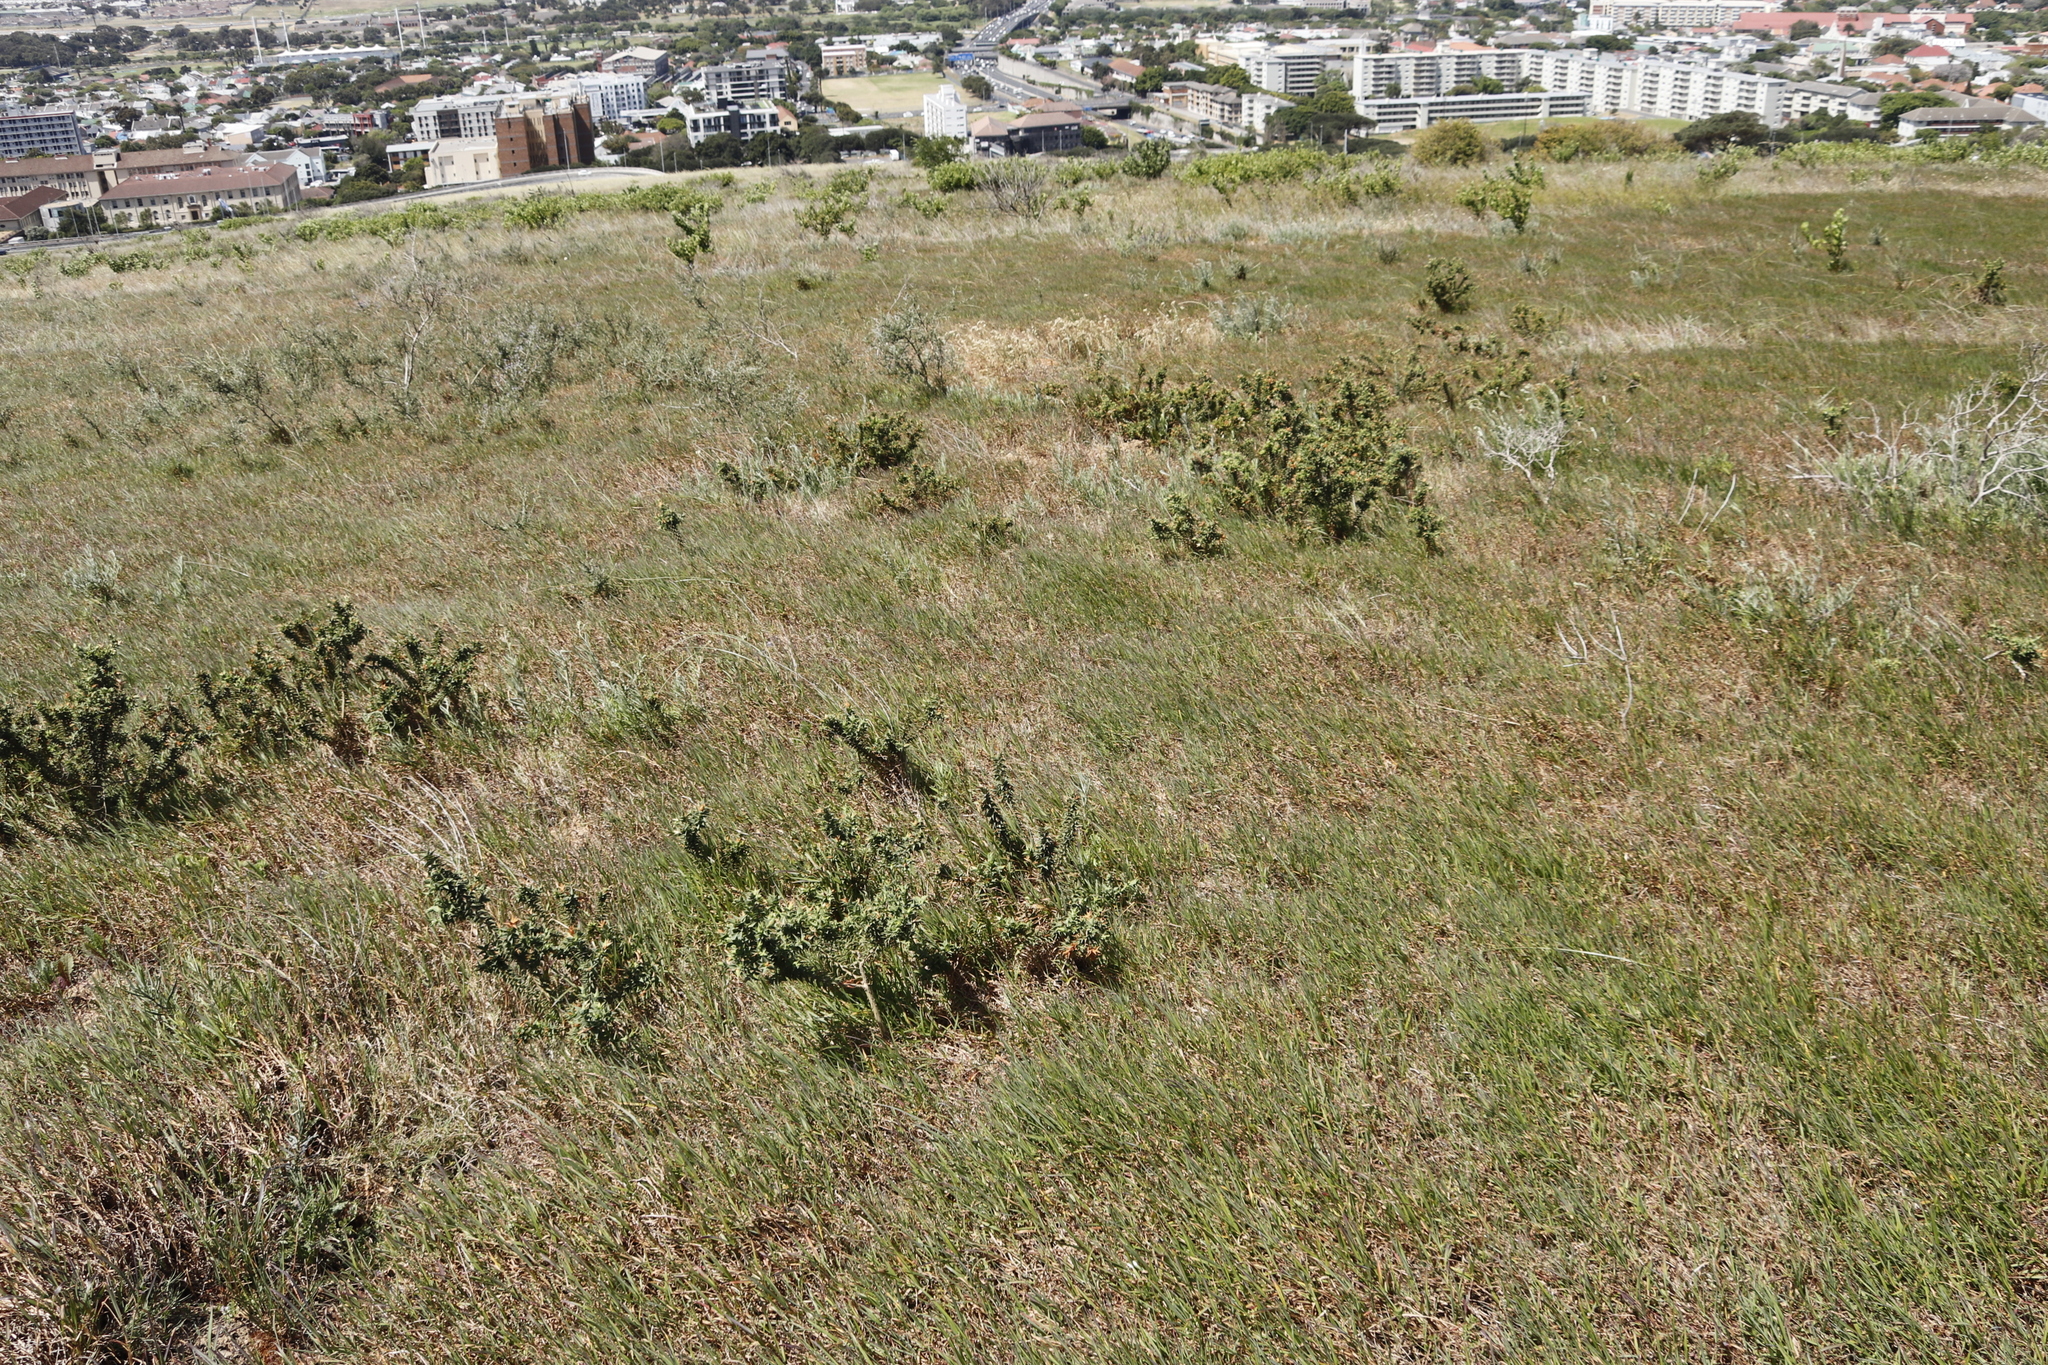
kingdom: Plantae
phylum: Tracheophyta
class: Magnoliopsida
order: Fabales
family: Fabaceae
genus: Aspalathus
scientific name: Aspalathus cordata
